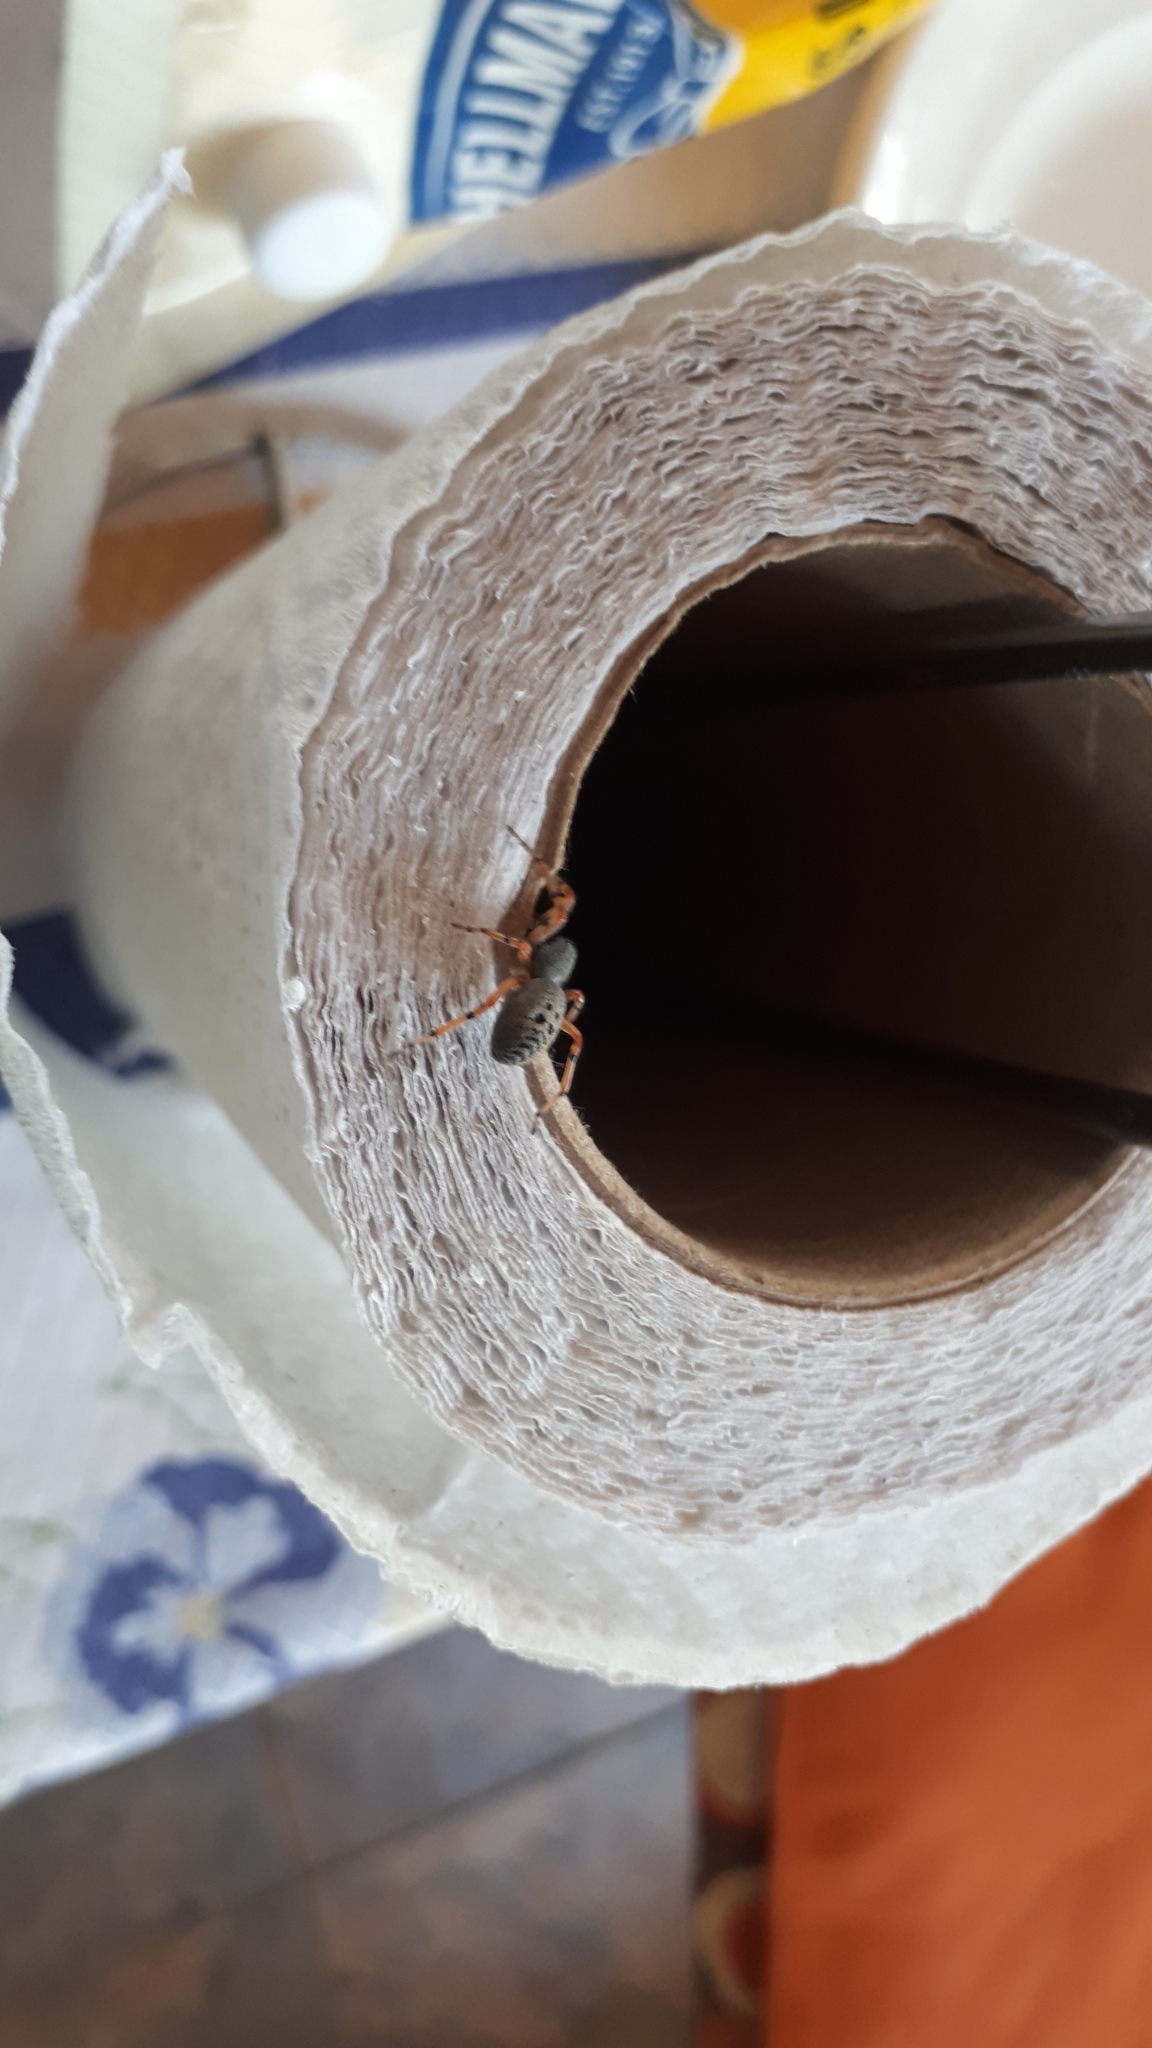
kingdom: Animalia
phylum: Arthropoda
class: Arachnida
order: Araneae
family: Trachelidae
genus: Trachelopachys
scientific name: Trachelopachys
